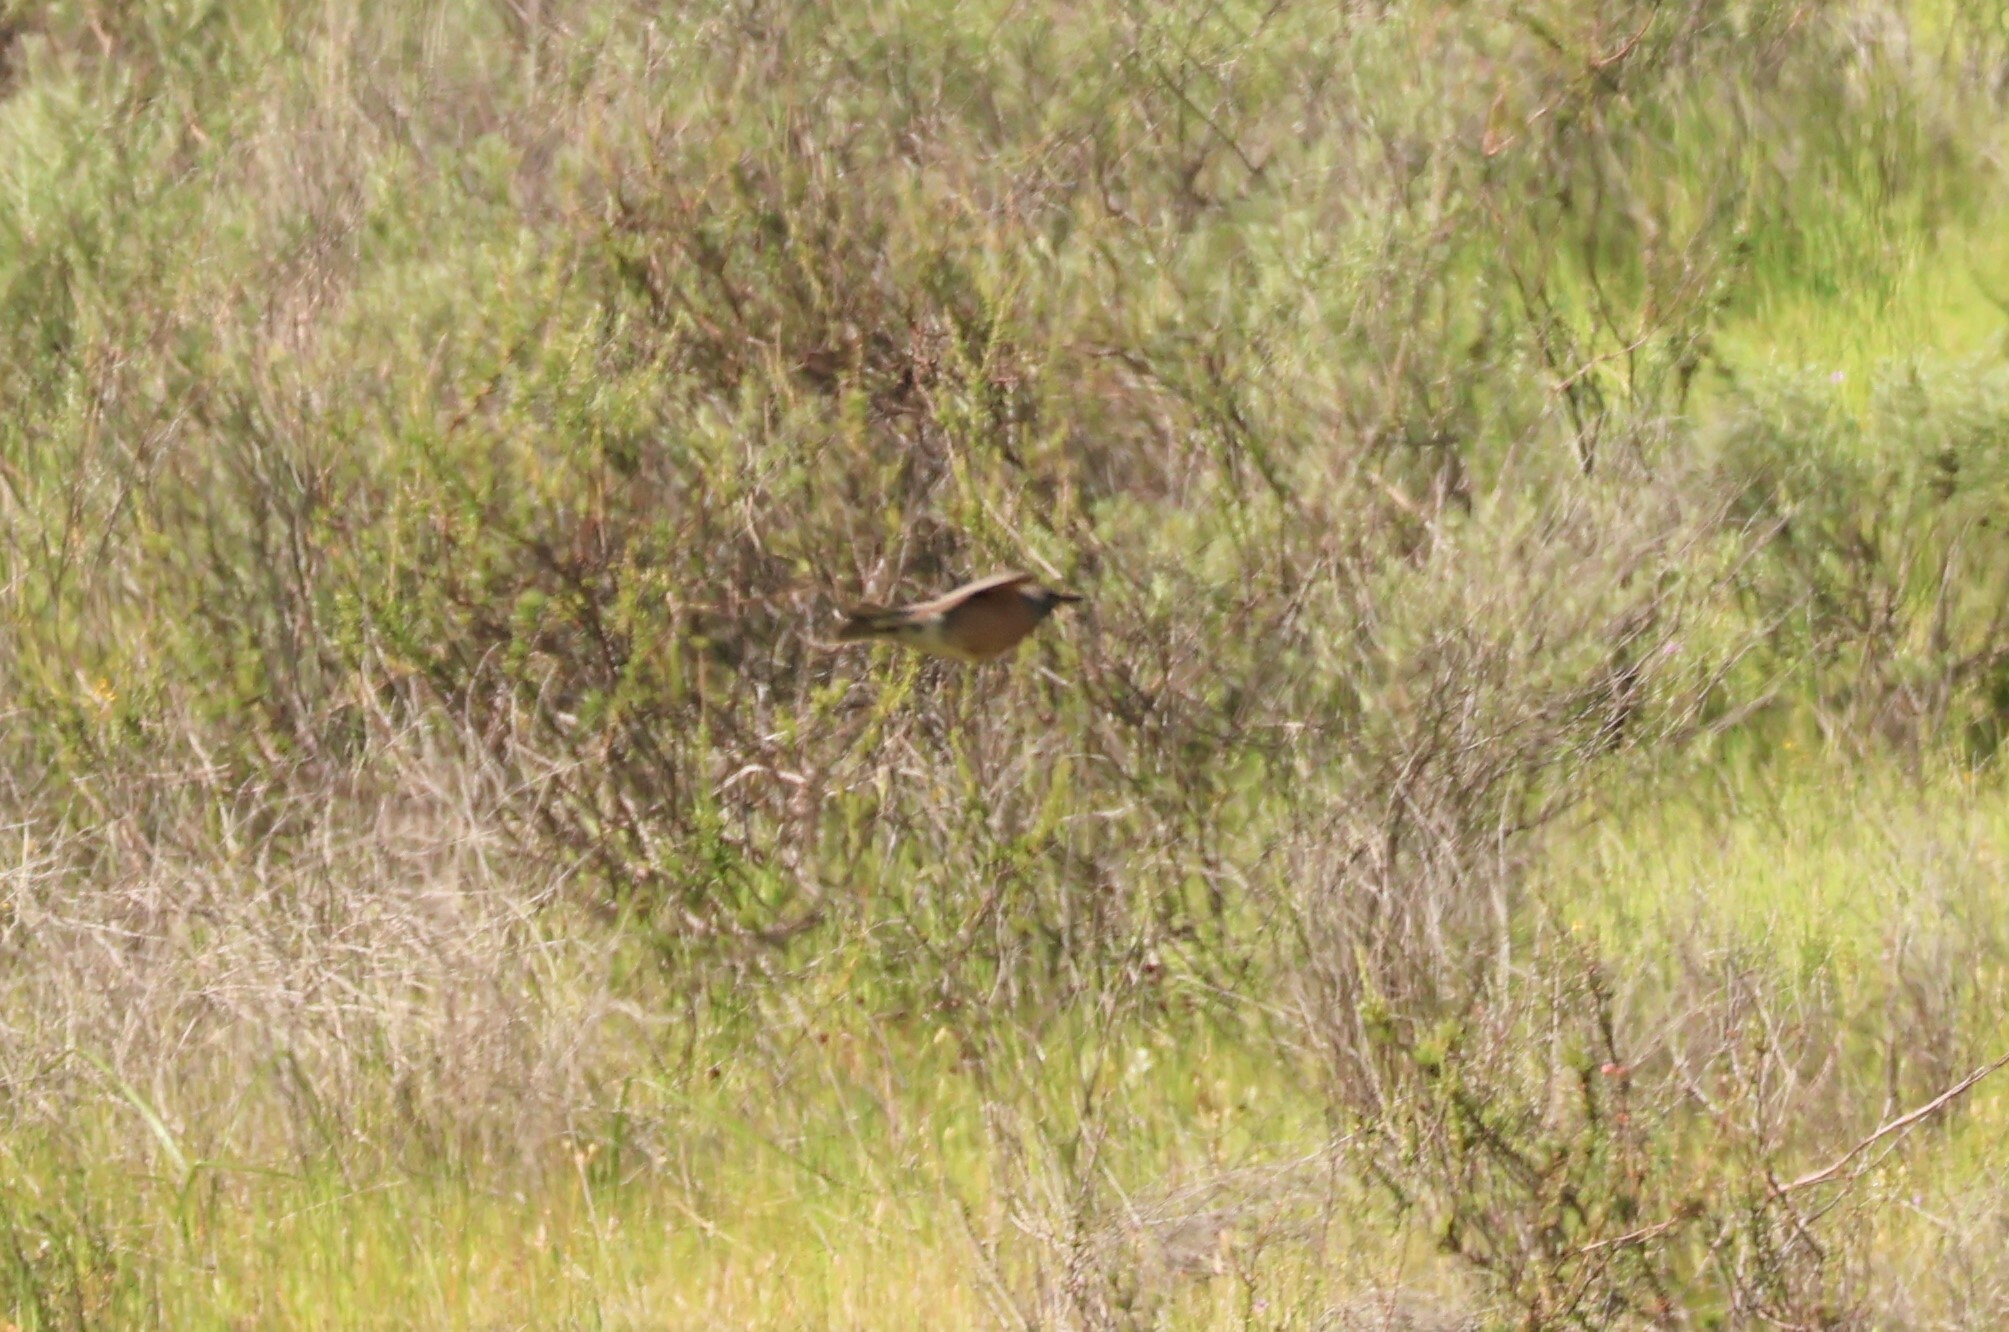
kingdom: Animalia
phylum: Chordata
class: Aves
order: Passeriformes
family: Turdidae
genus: Turdus
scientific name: Turdus migratorius
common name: American robin
